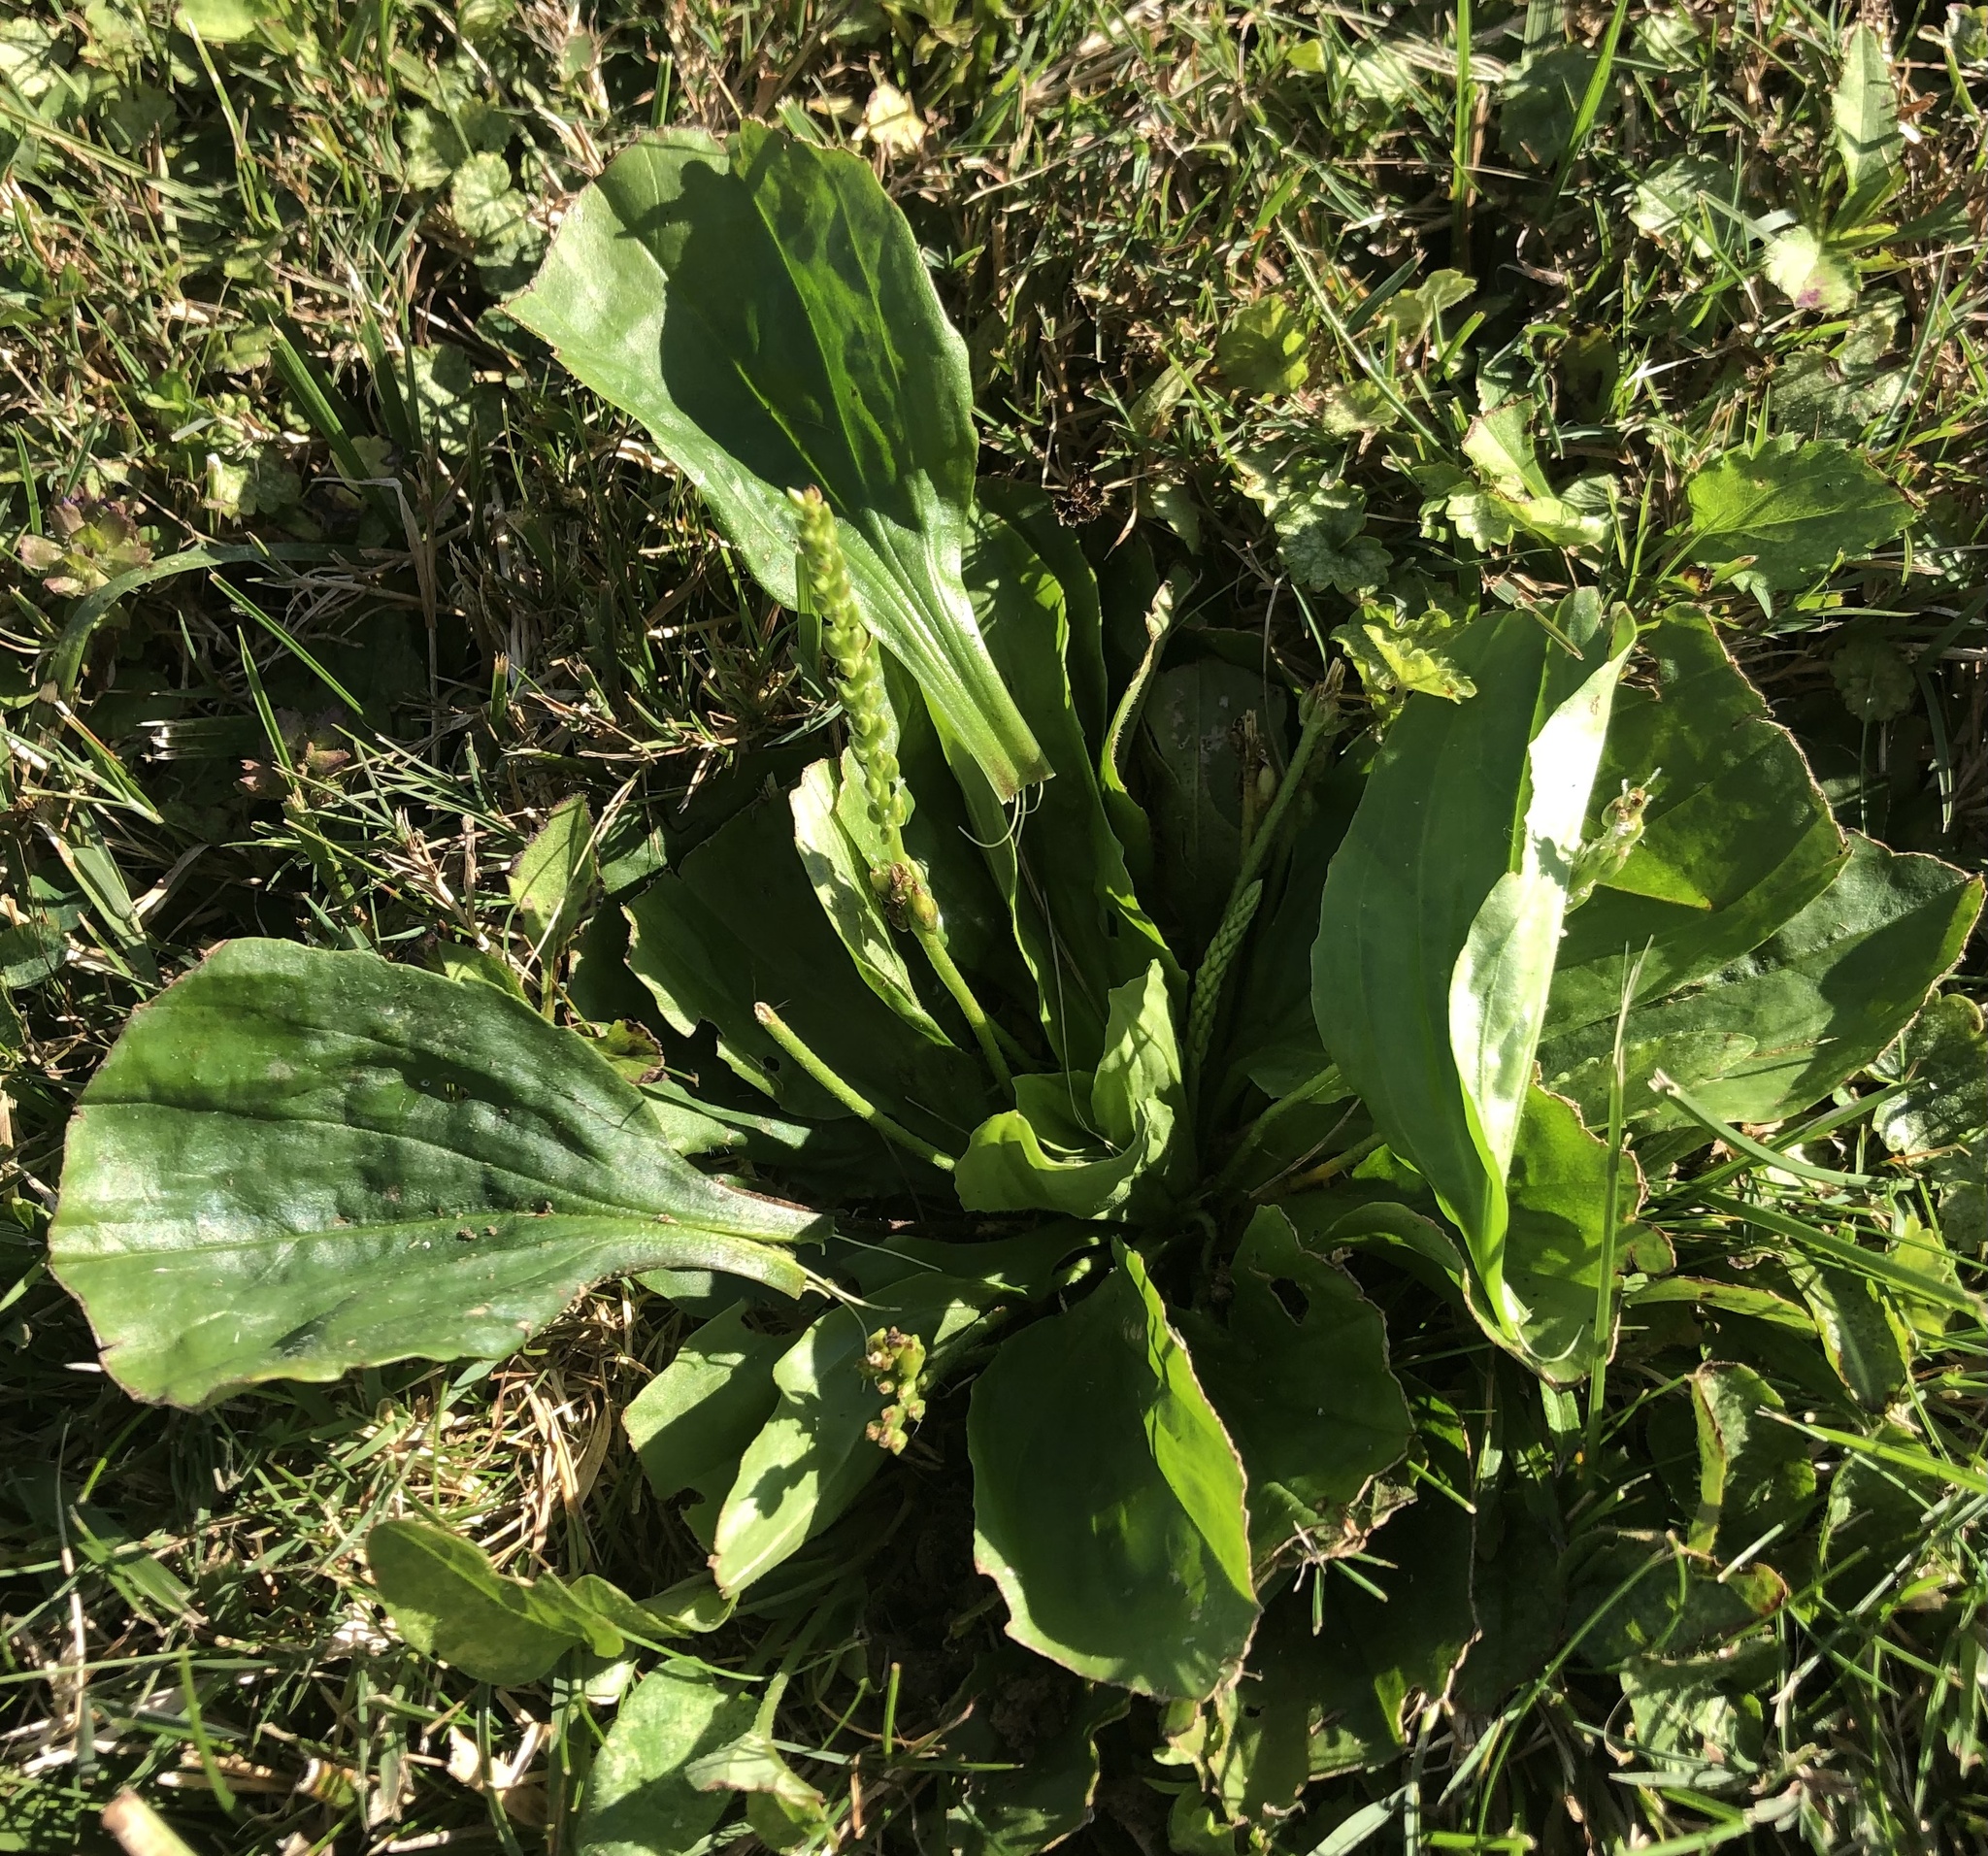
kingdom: Plantae
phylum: Tracheophyta
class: Magnoliopsida
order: Lamiales
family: Plantaginaceae
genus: Plantago
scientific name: Plantago major
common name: Common plantain
